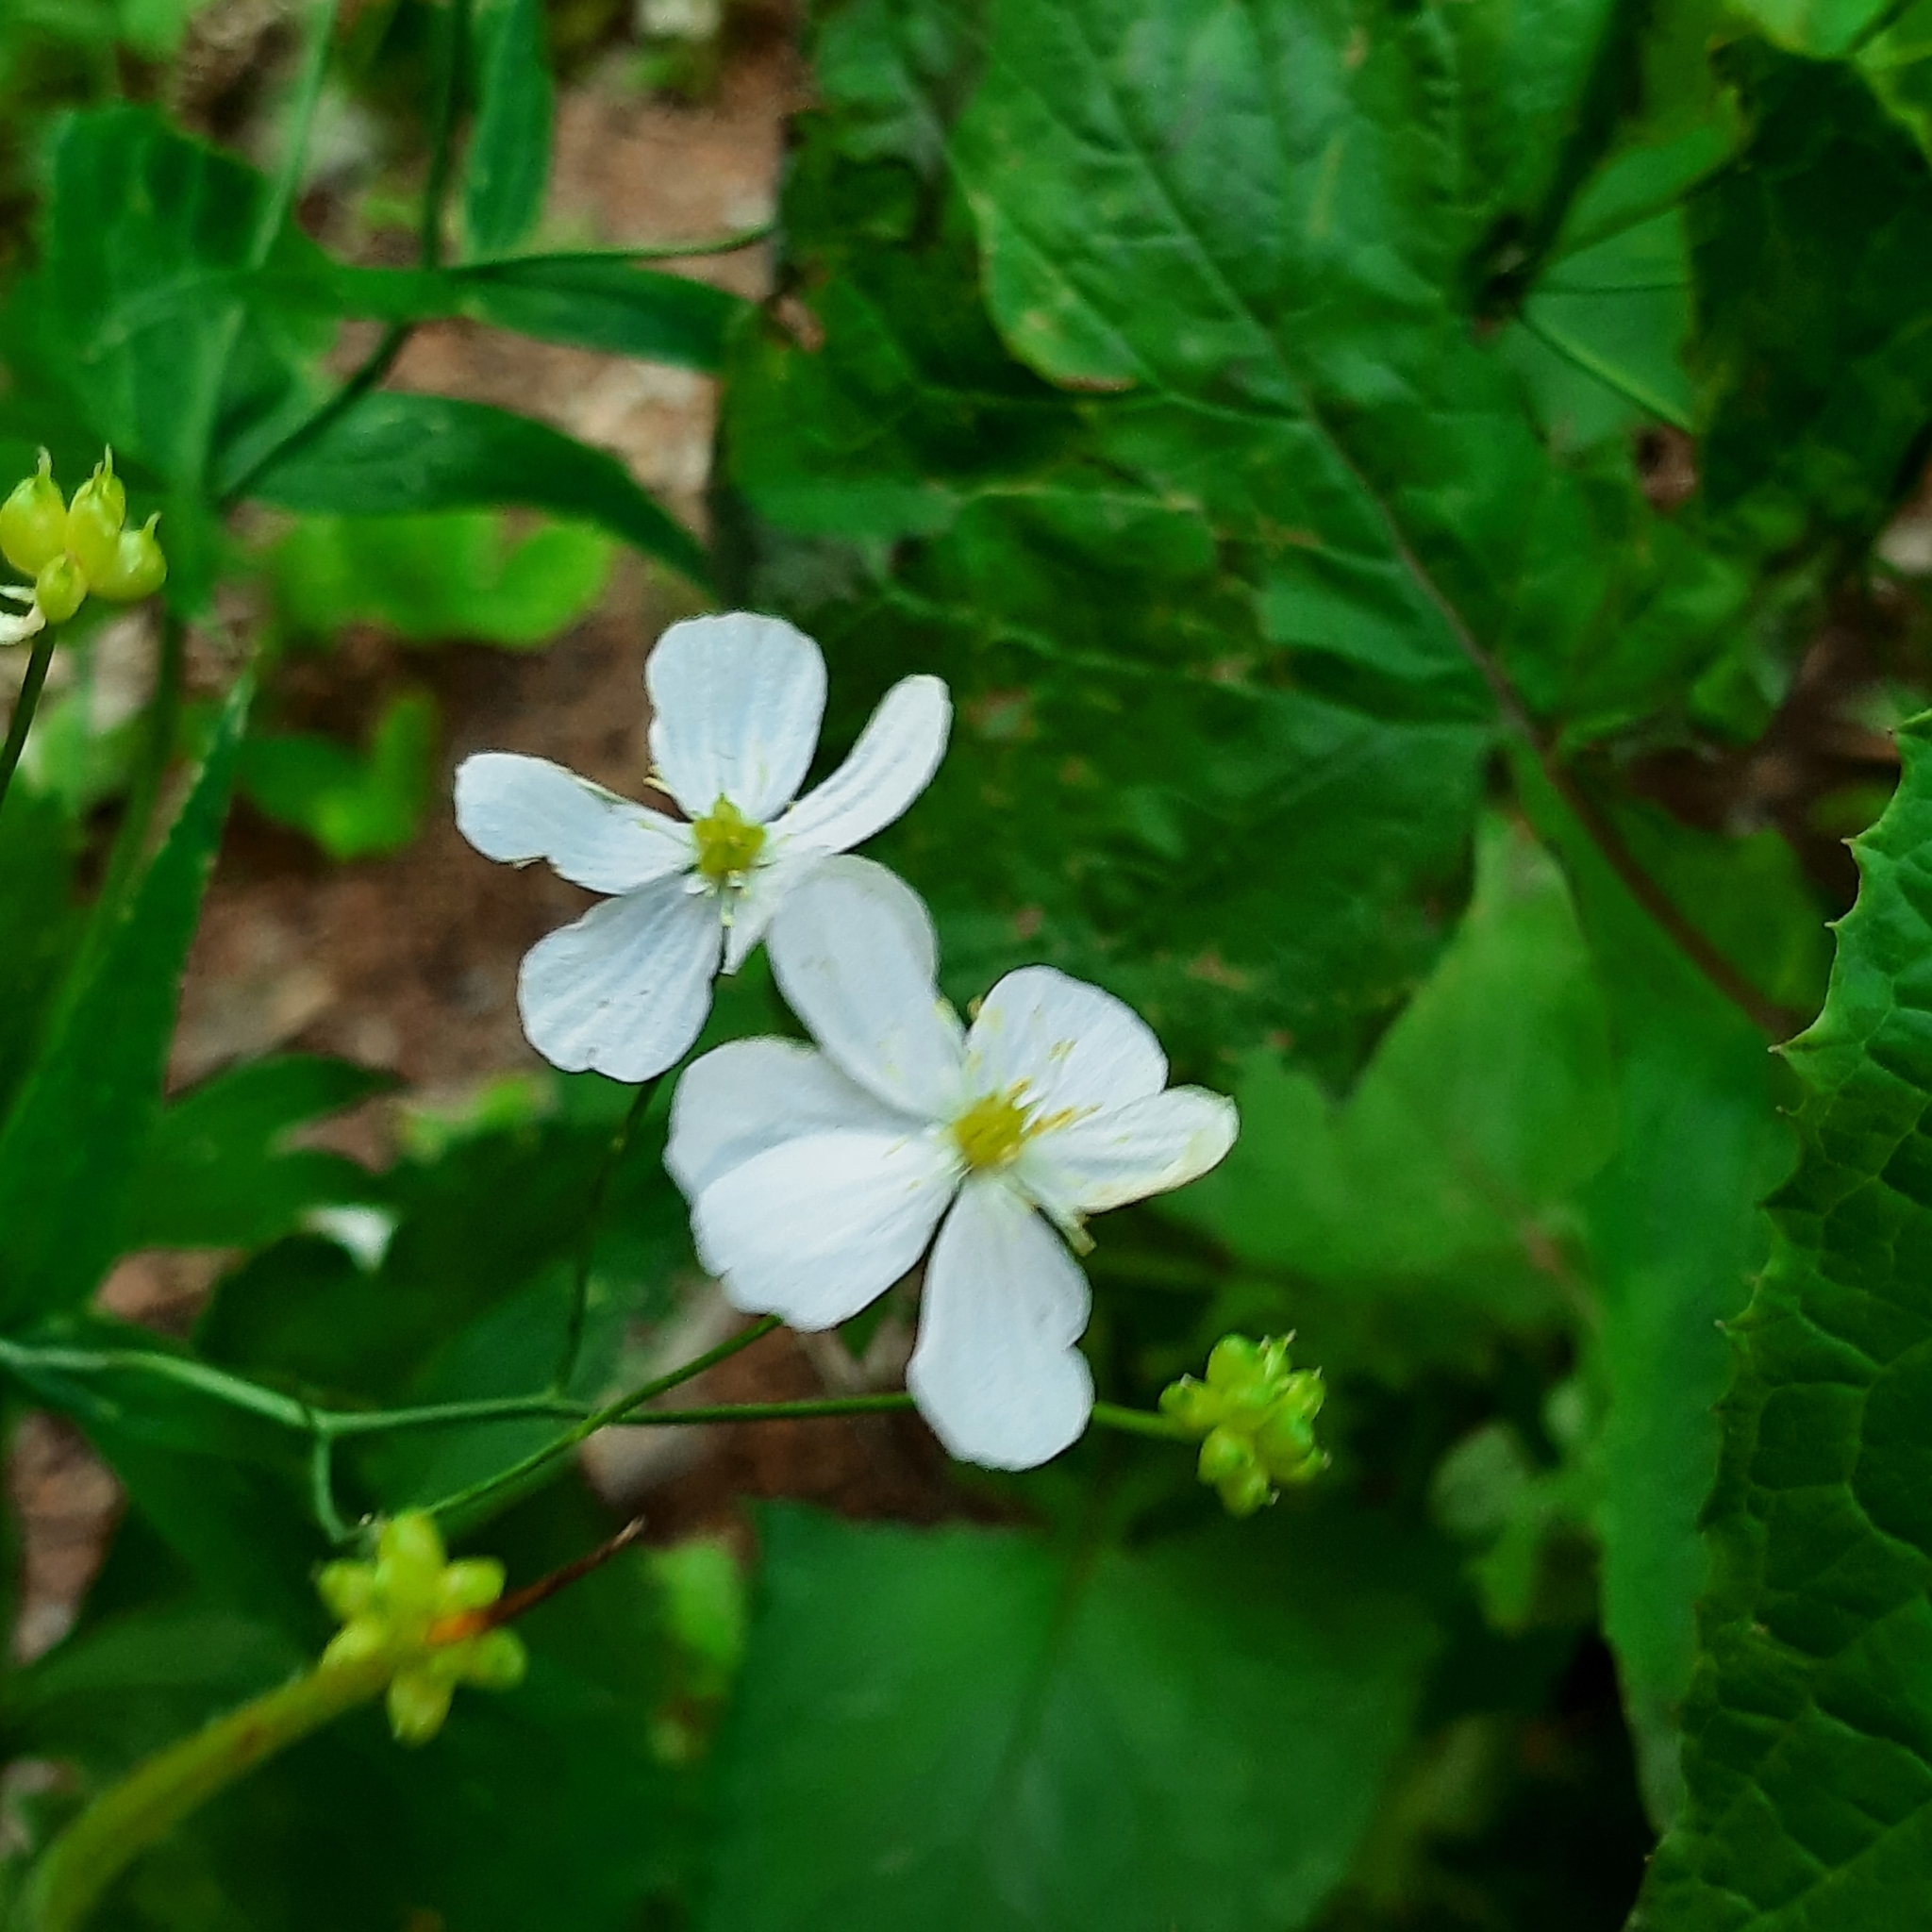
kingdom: Plantae
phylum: Tracheophyta
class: Magnoliopsida
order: Ranunculales
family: Ranunculaceae
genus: Ranunculus
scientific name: Ranunculus platanifolius
